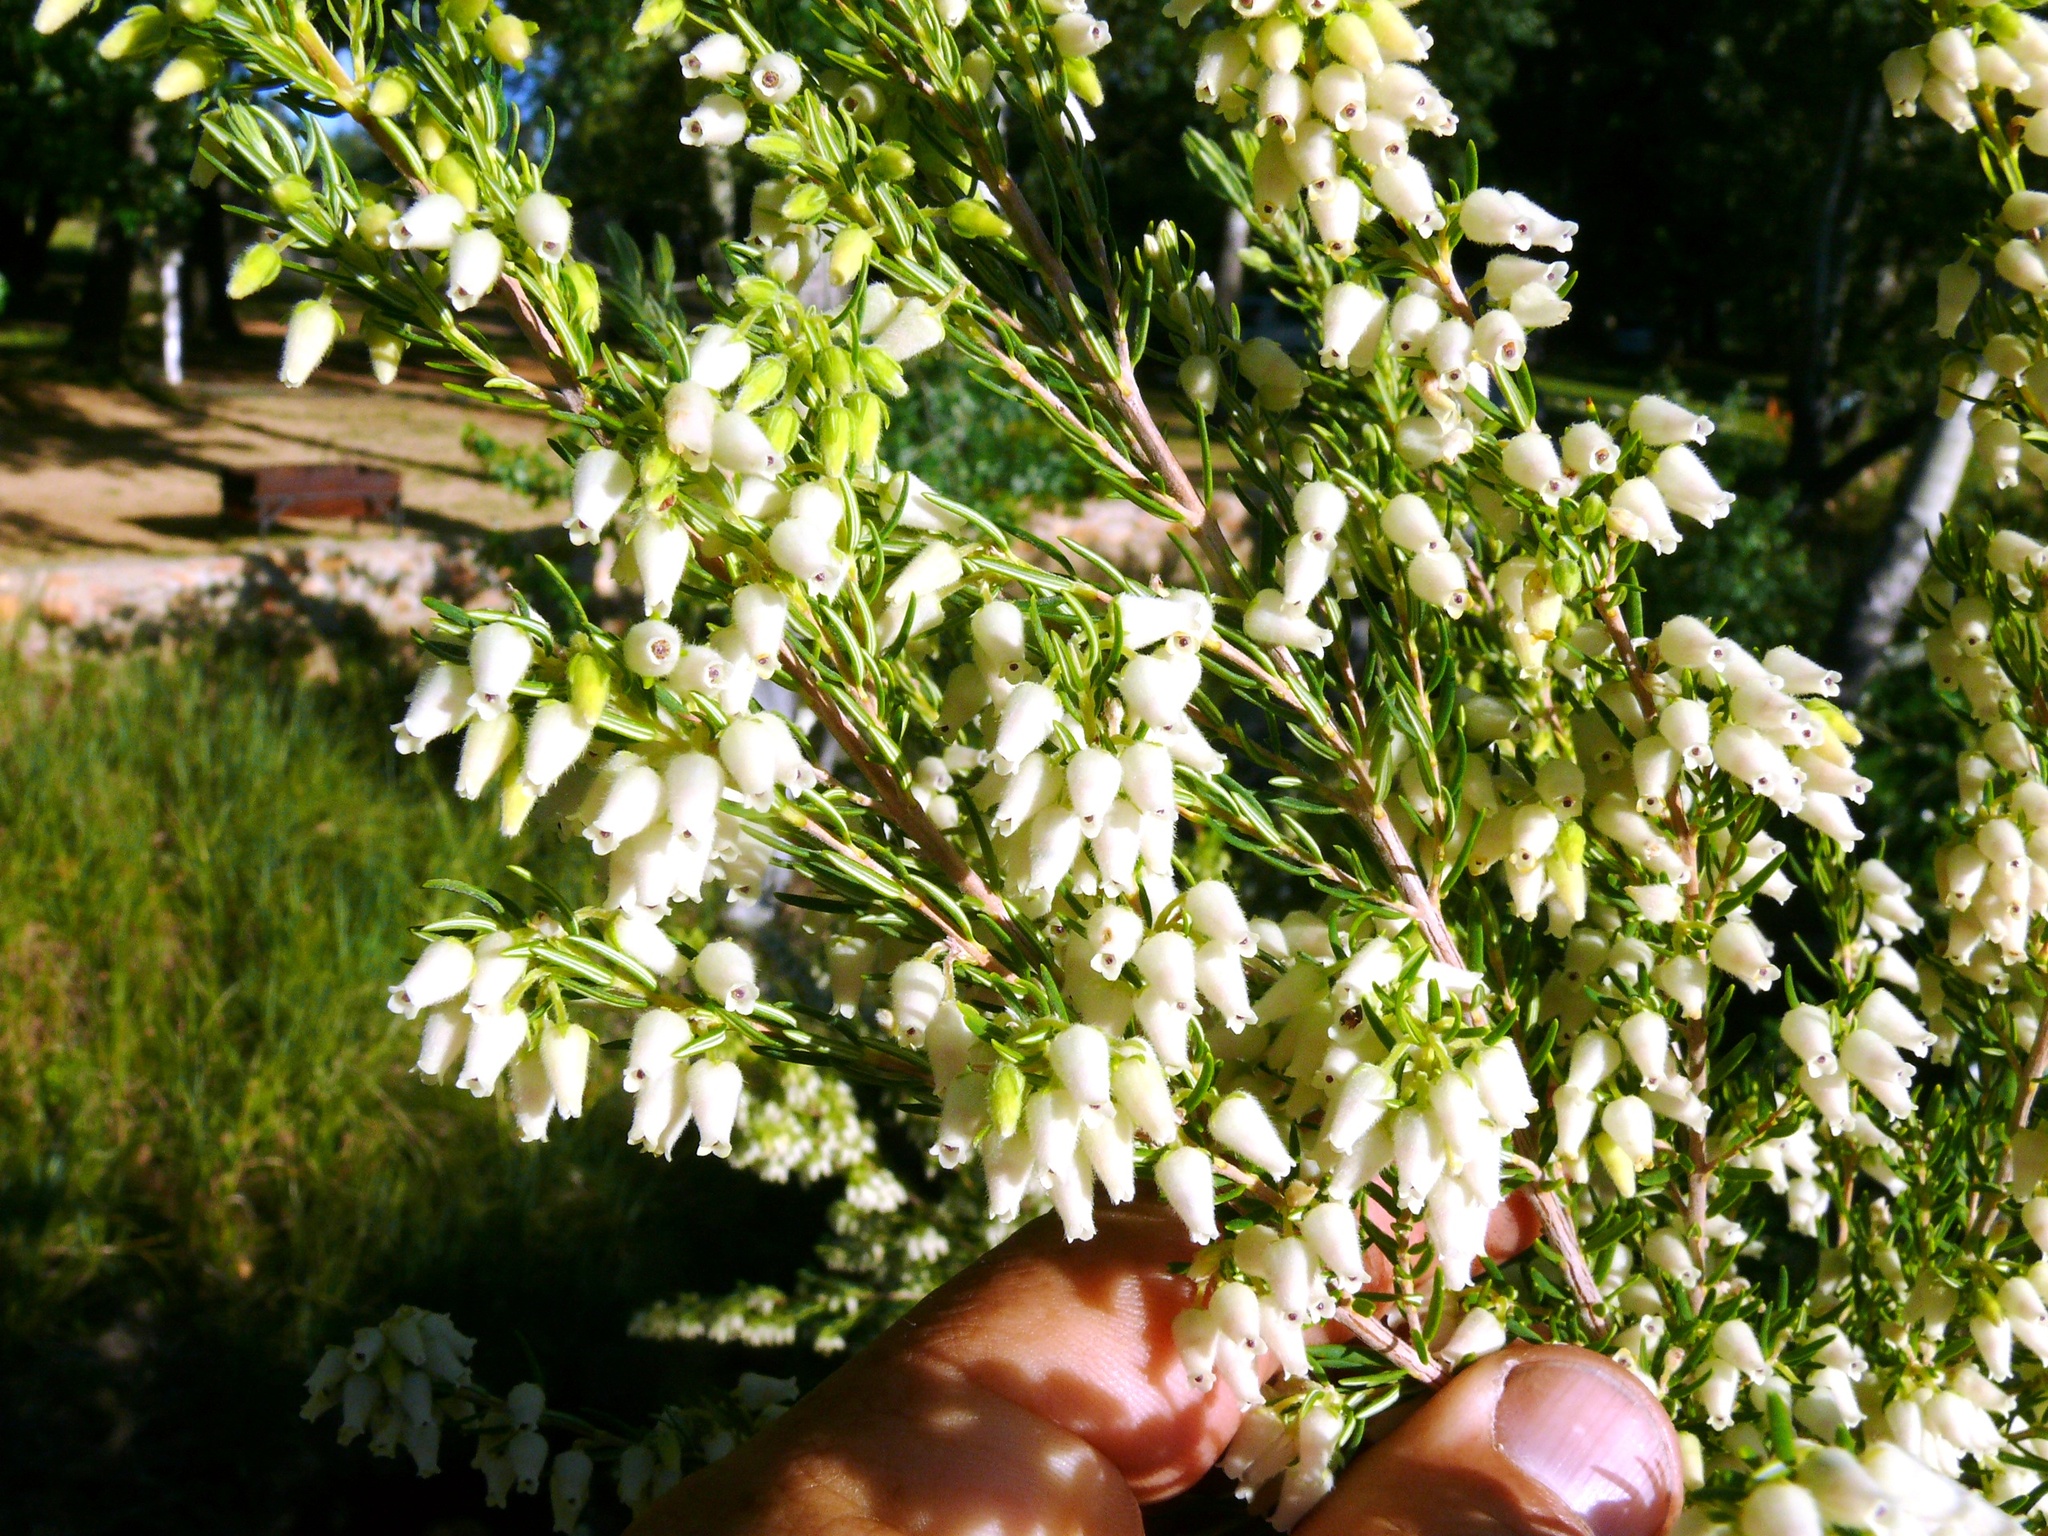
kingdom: Plantae
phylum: Tracheophyta
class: Magnoliopsida
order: Ericales
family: Ericaceae
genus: Erica
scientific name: Erica caffra
